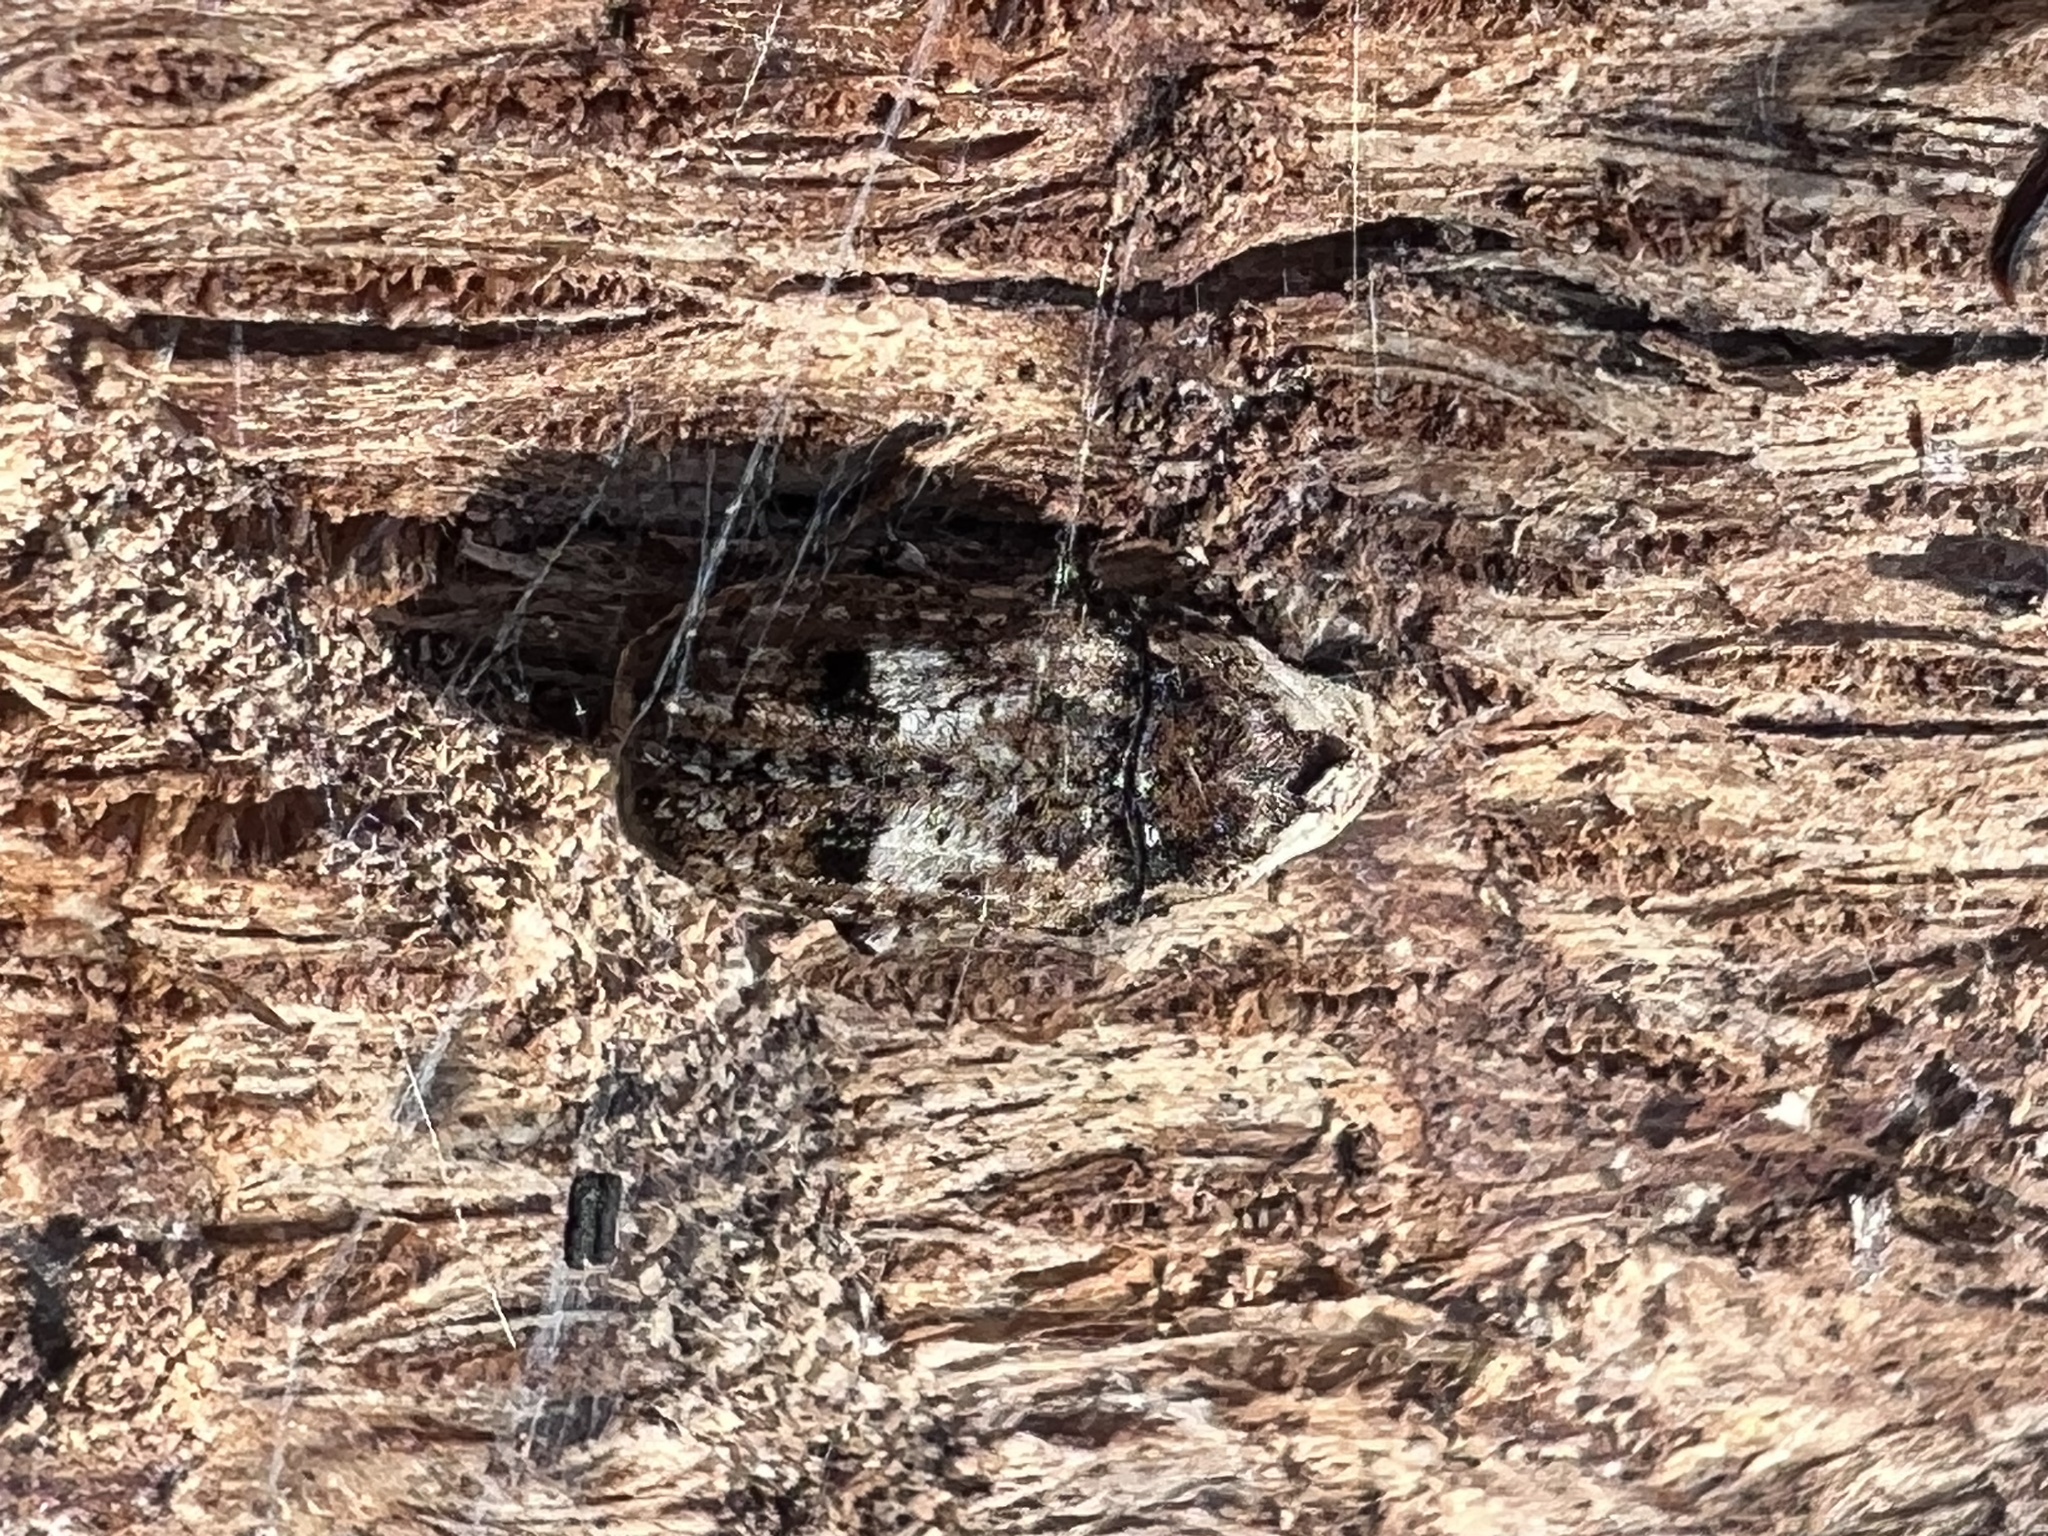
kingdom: Animalia
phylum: Arthropoda
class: Insecta
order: Coleoptera
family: Anthribidae
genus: Euparius
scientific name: Euparius marmoreus
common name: Marbled fungus weevil
